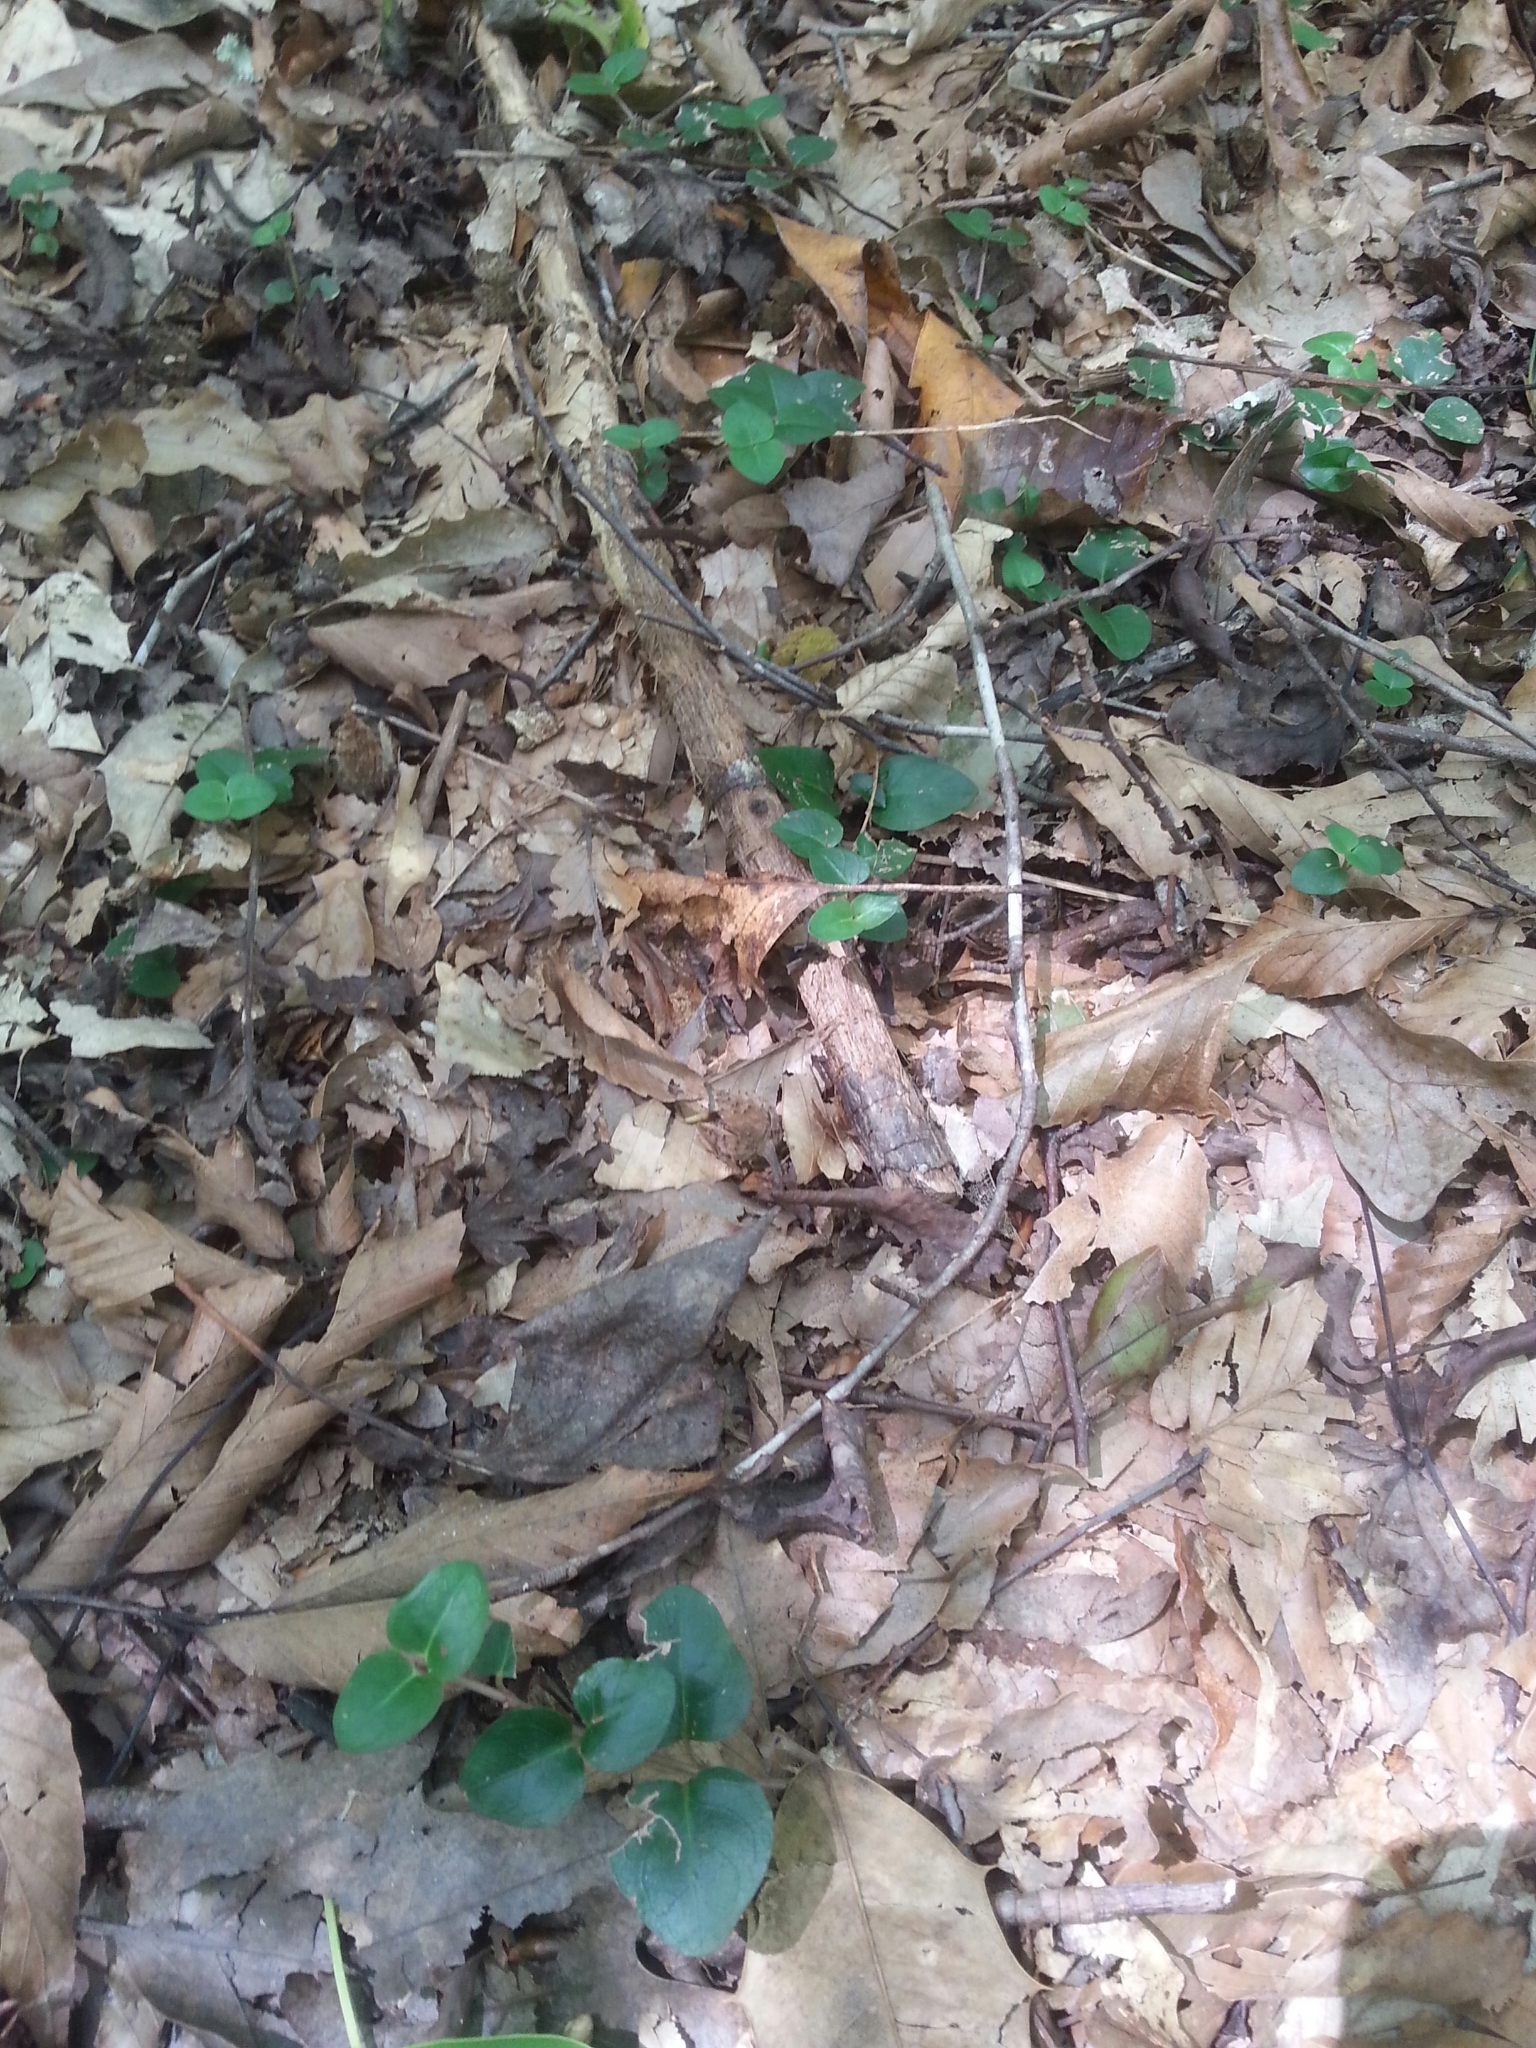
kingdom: Plantae
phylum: Tracheophyta
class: Magnoliopsida
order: Gentianales
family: Rubiaceae
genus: Mitchella
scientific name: Mitchella repens
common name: Partridge-berry
